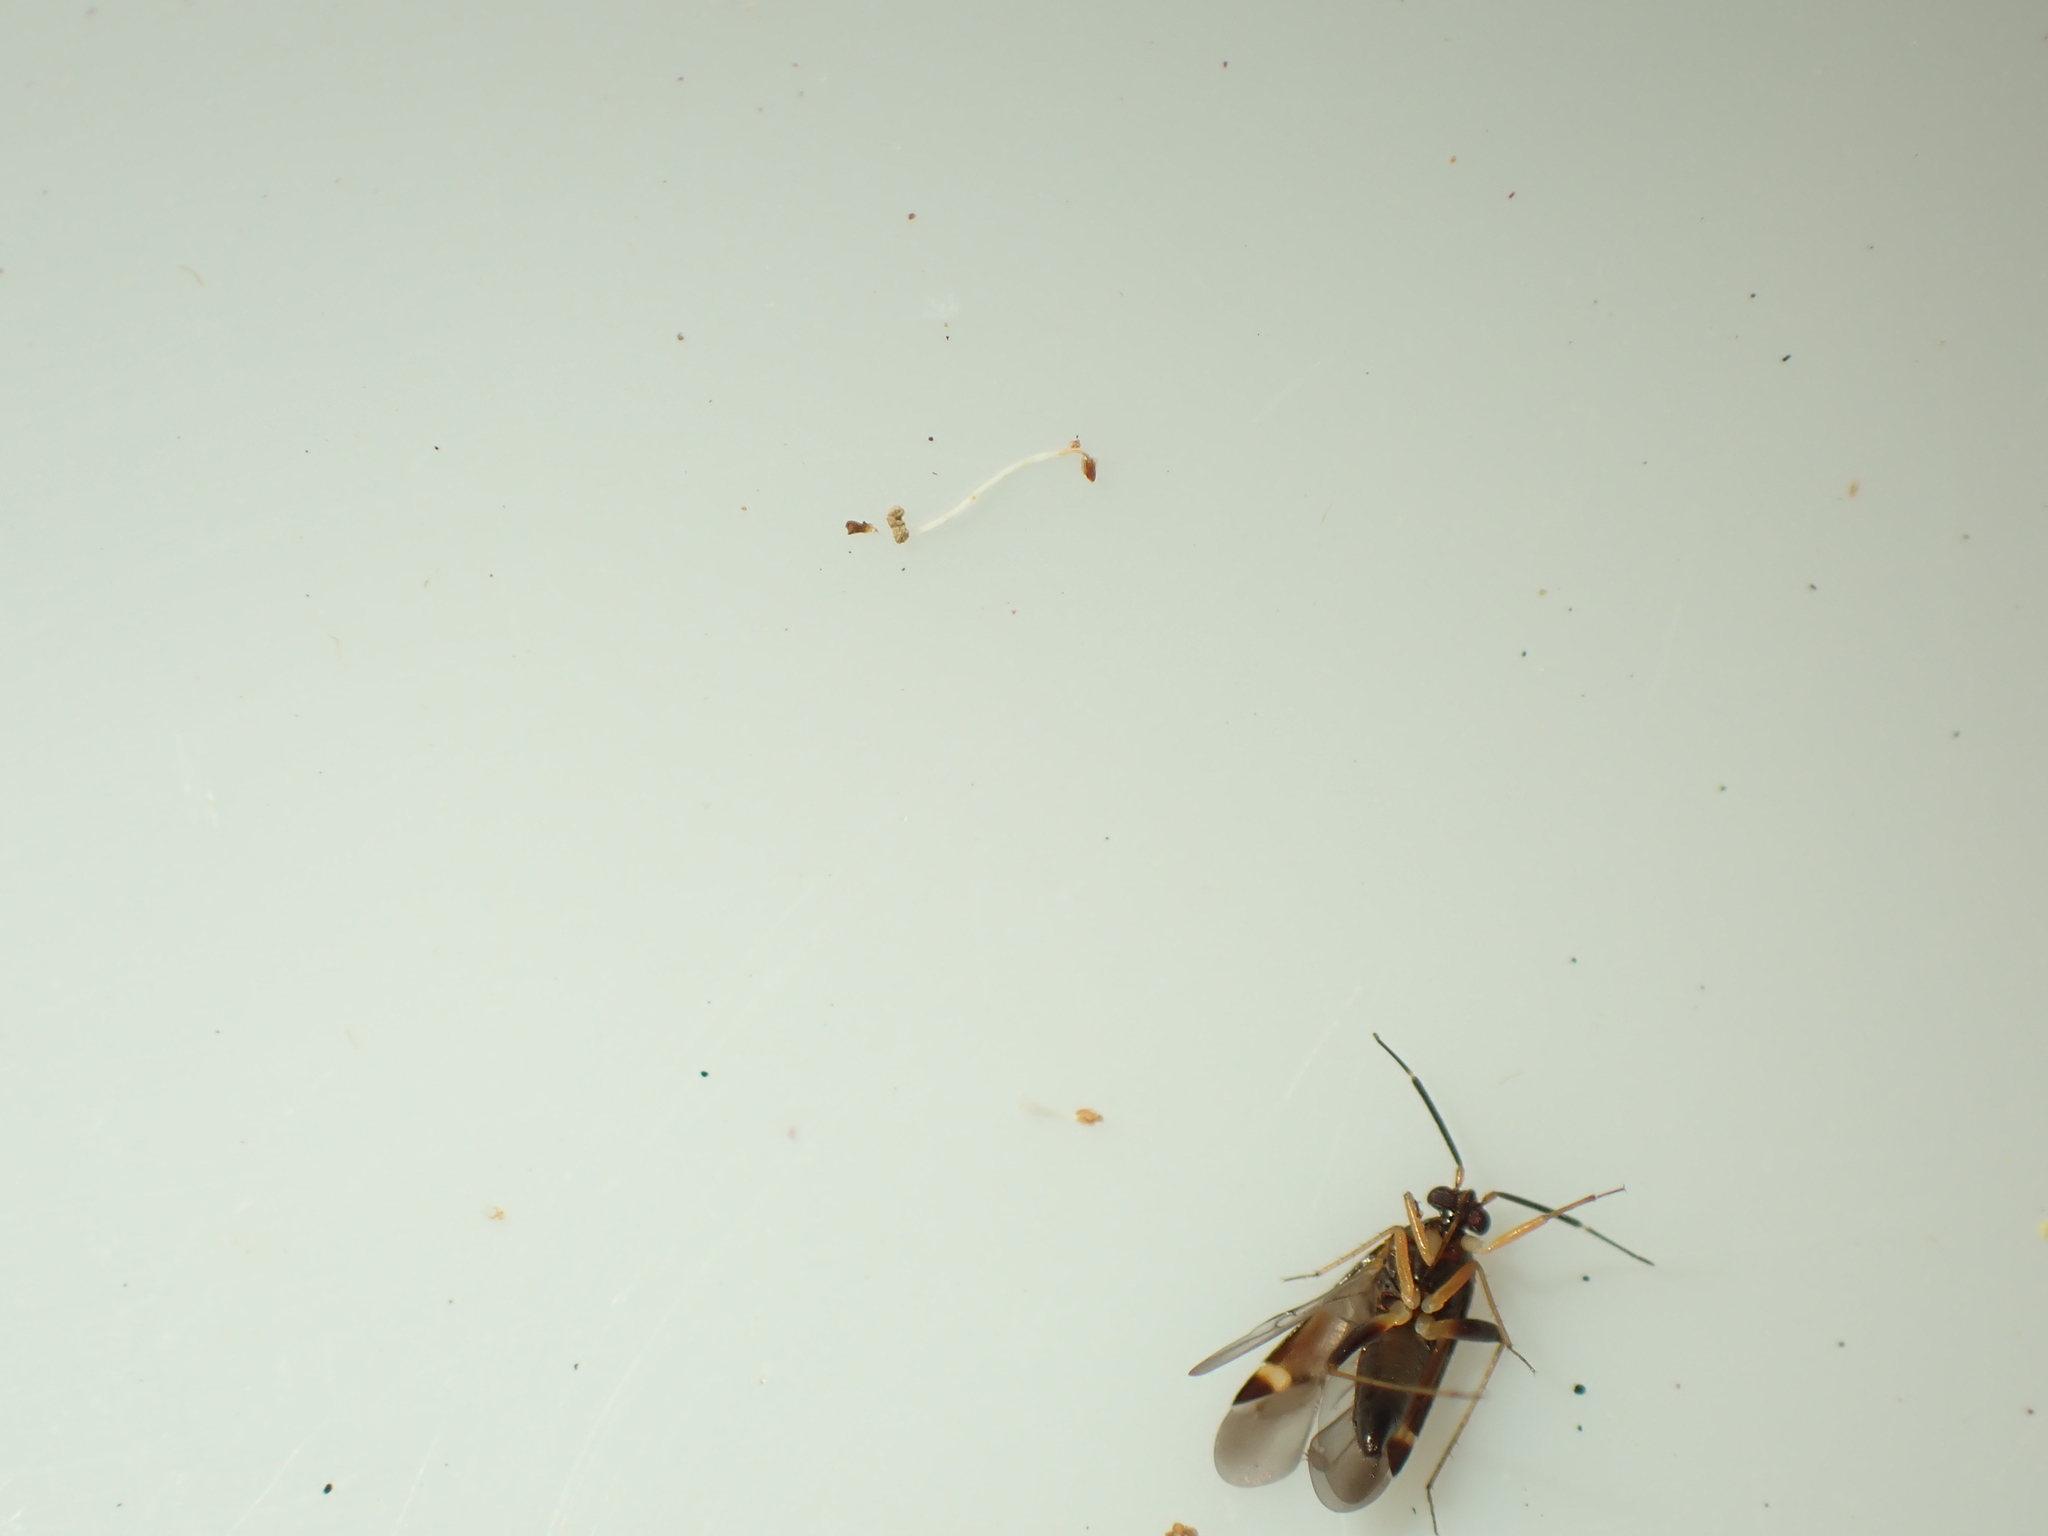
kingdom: Animalia
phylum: Arthropoda
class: Insecta
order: Hemiptera
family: Miridae
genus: Ausejanus
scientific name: Ausejanus albisignatus
